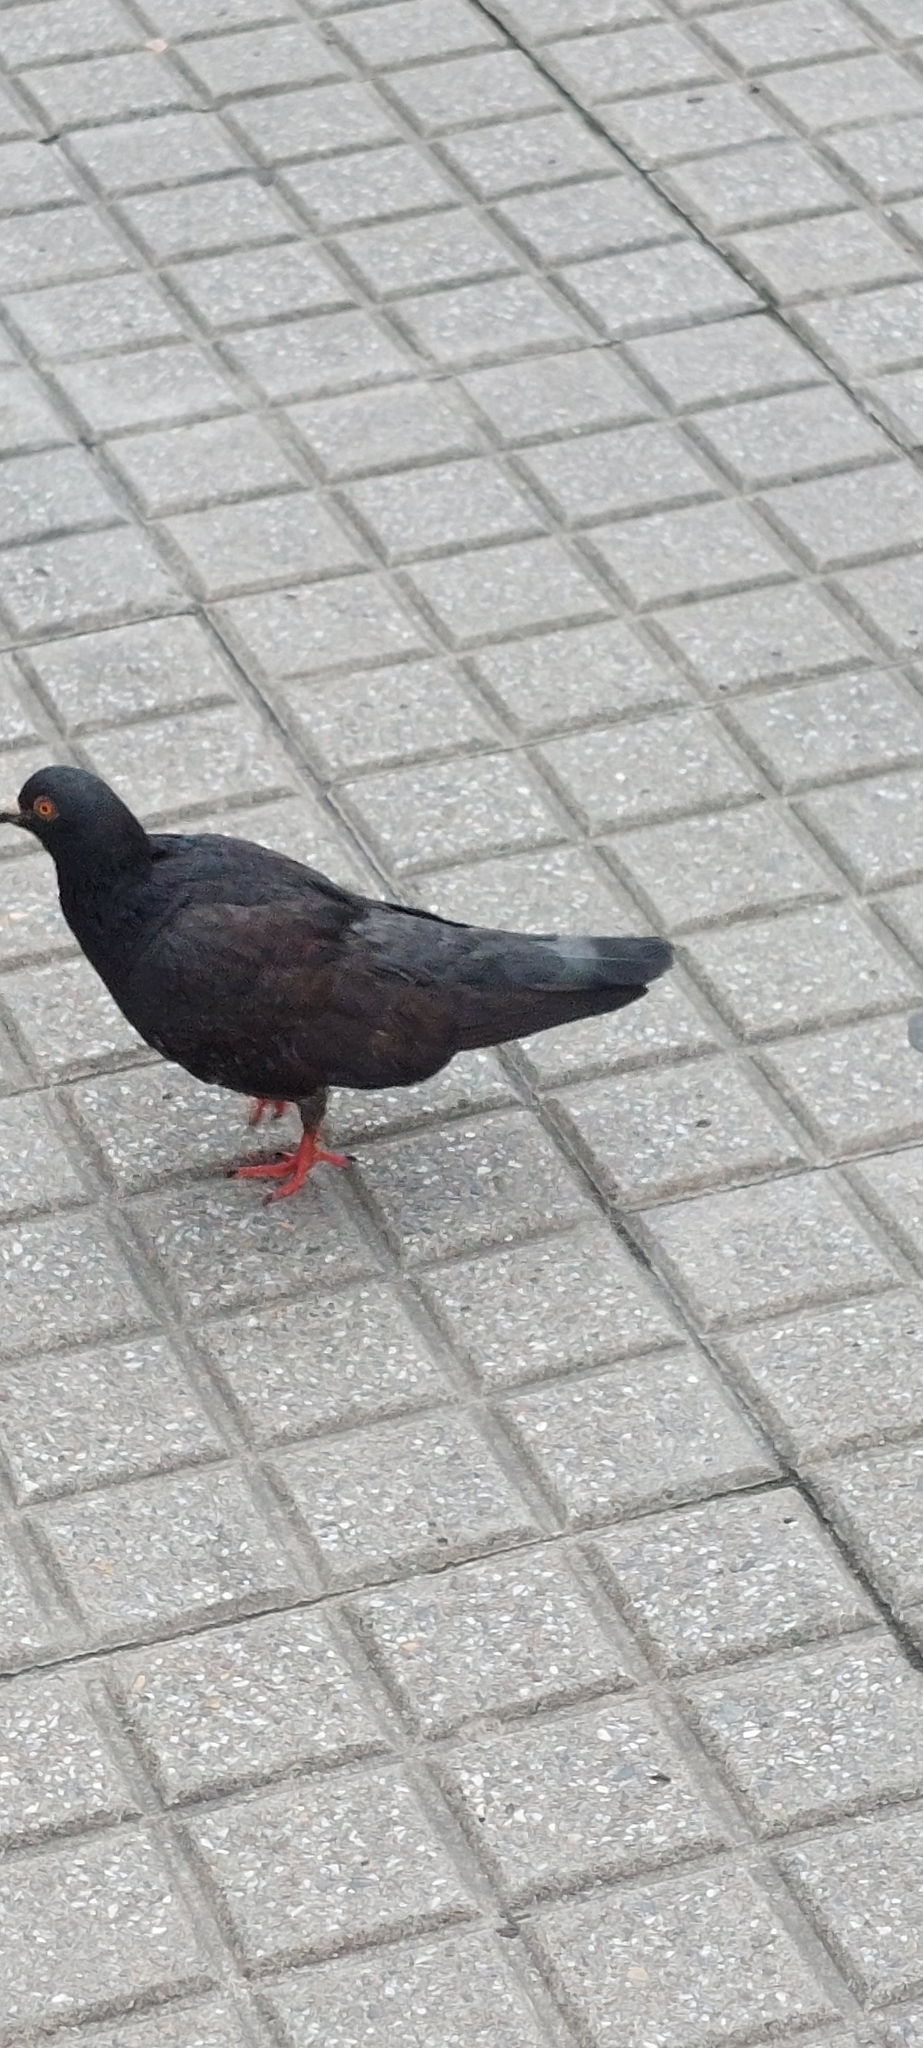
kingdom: Animalia
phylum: Chordata
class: Aves
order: Columbiformes
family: Columbidae
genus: Columba
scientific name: Columba livia
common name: Rock pigeon
